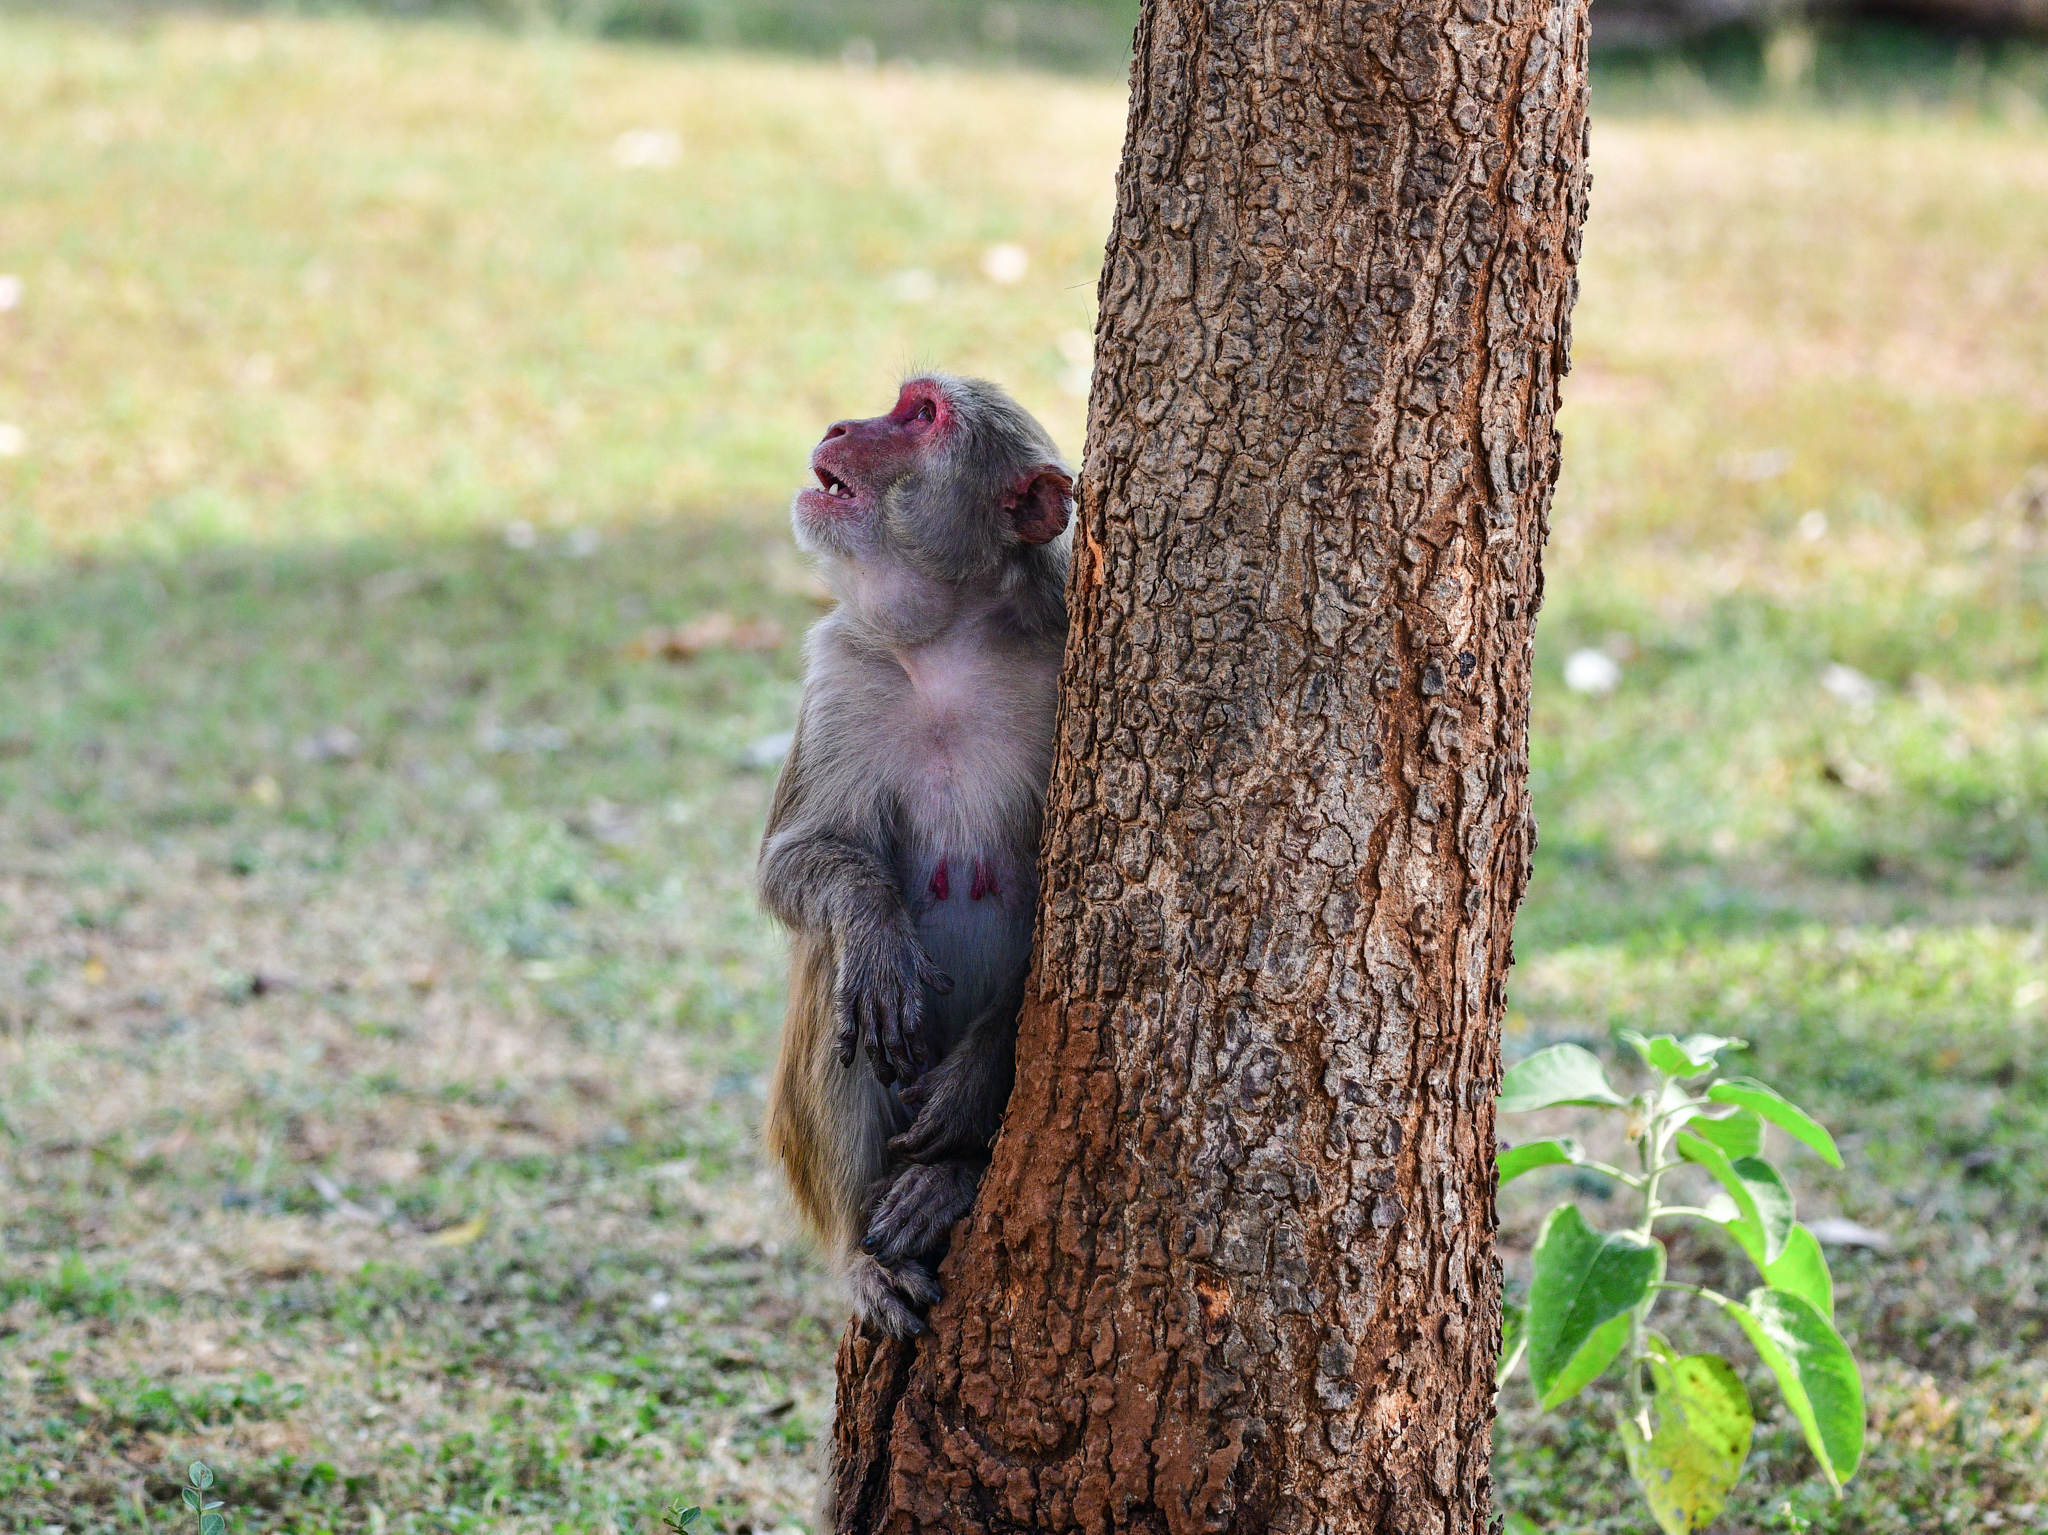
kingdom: Animalia
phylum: Chordata
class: Mammalia
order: Primates
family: Cercopithecidae
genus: Macaca
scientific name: Macaca mulatta
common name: Rhesus monkey
